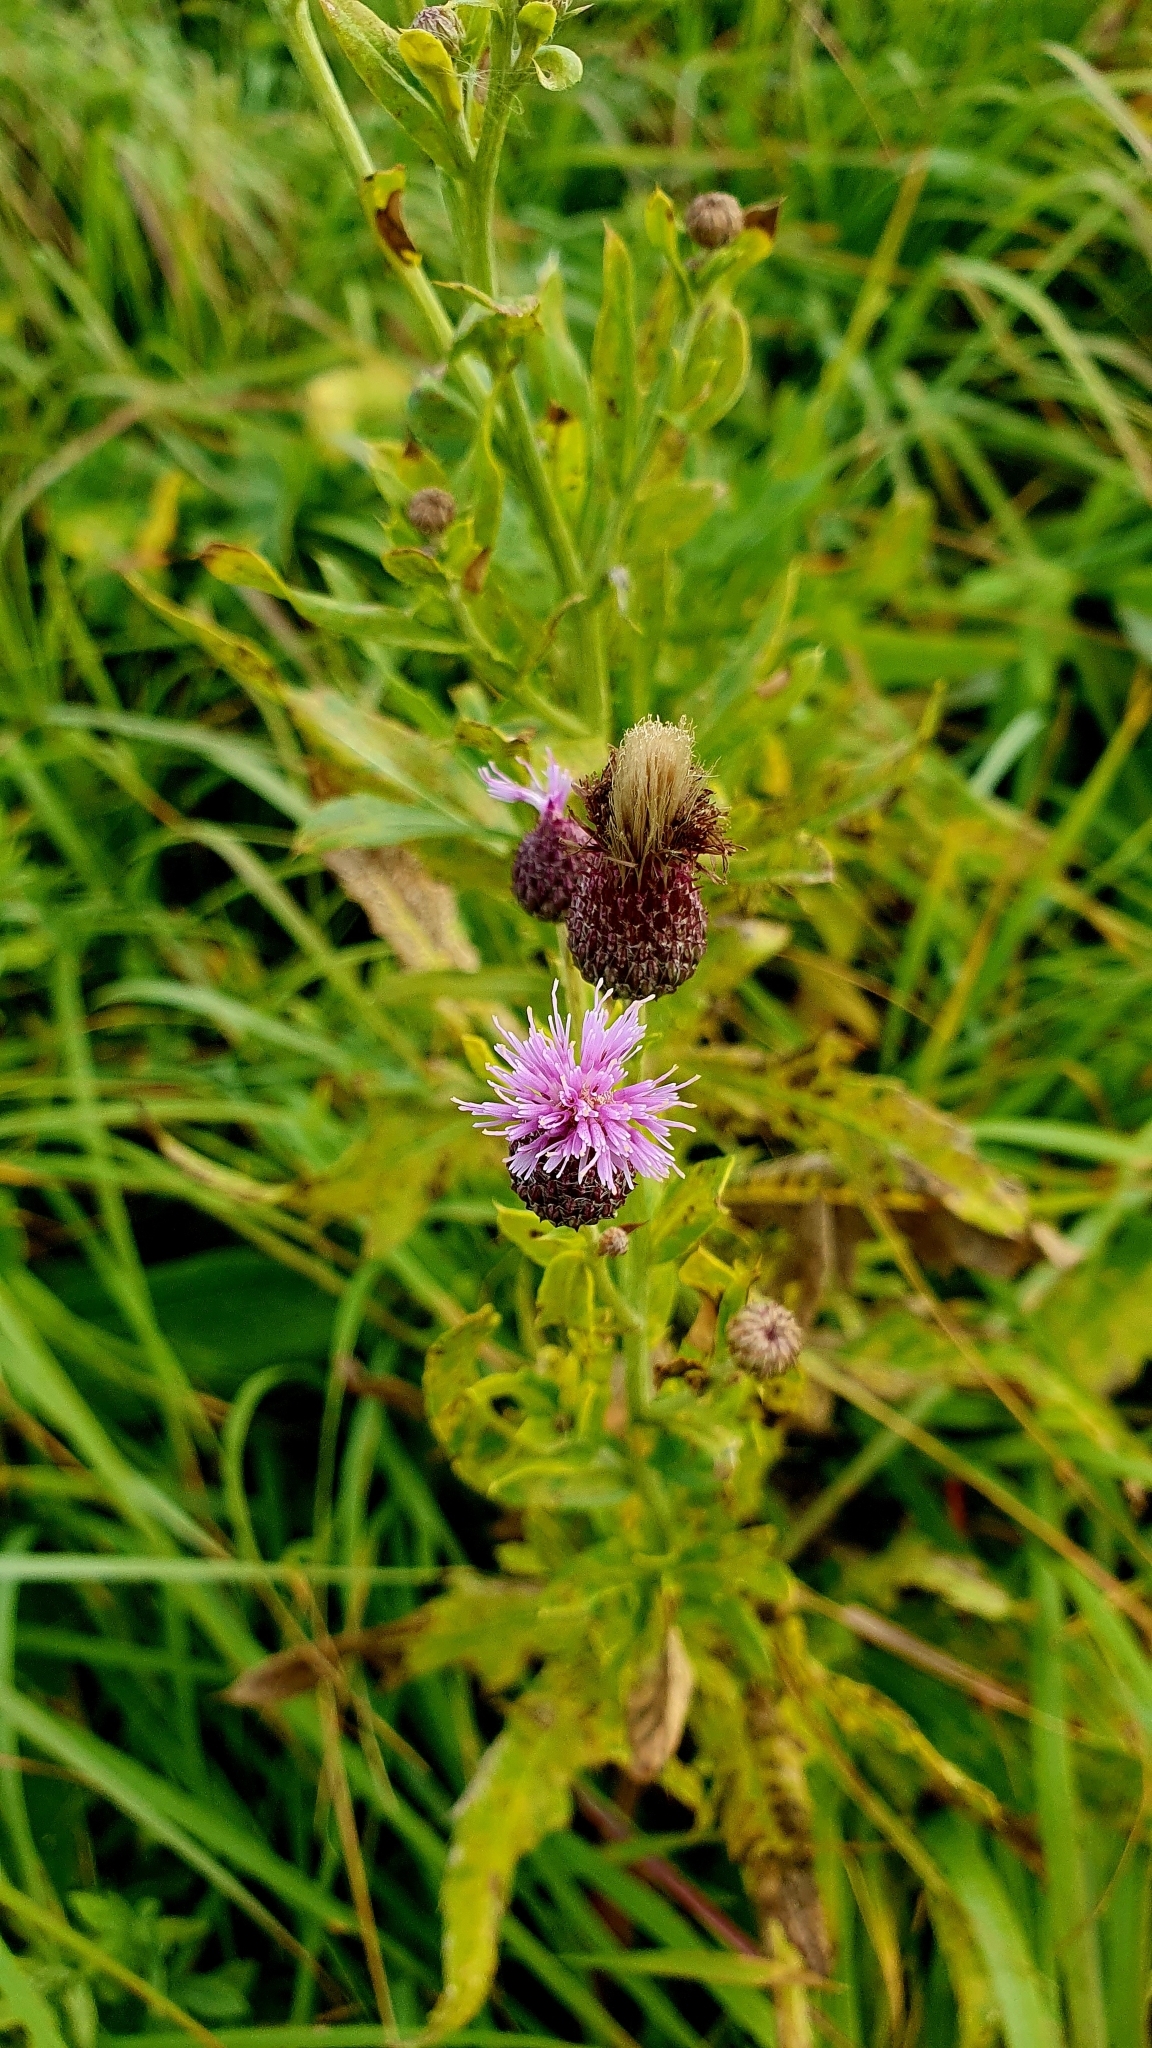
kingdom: Plantae
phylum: Tracheophyta
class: Magnoliopsida
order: Asterales
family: Asteraceae
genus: Cirsium
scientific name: Cirsium arvense
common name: Creeping thistle
